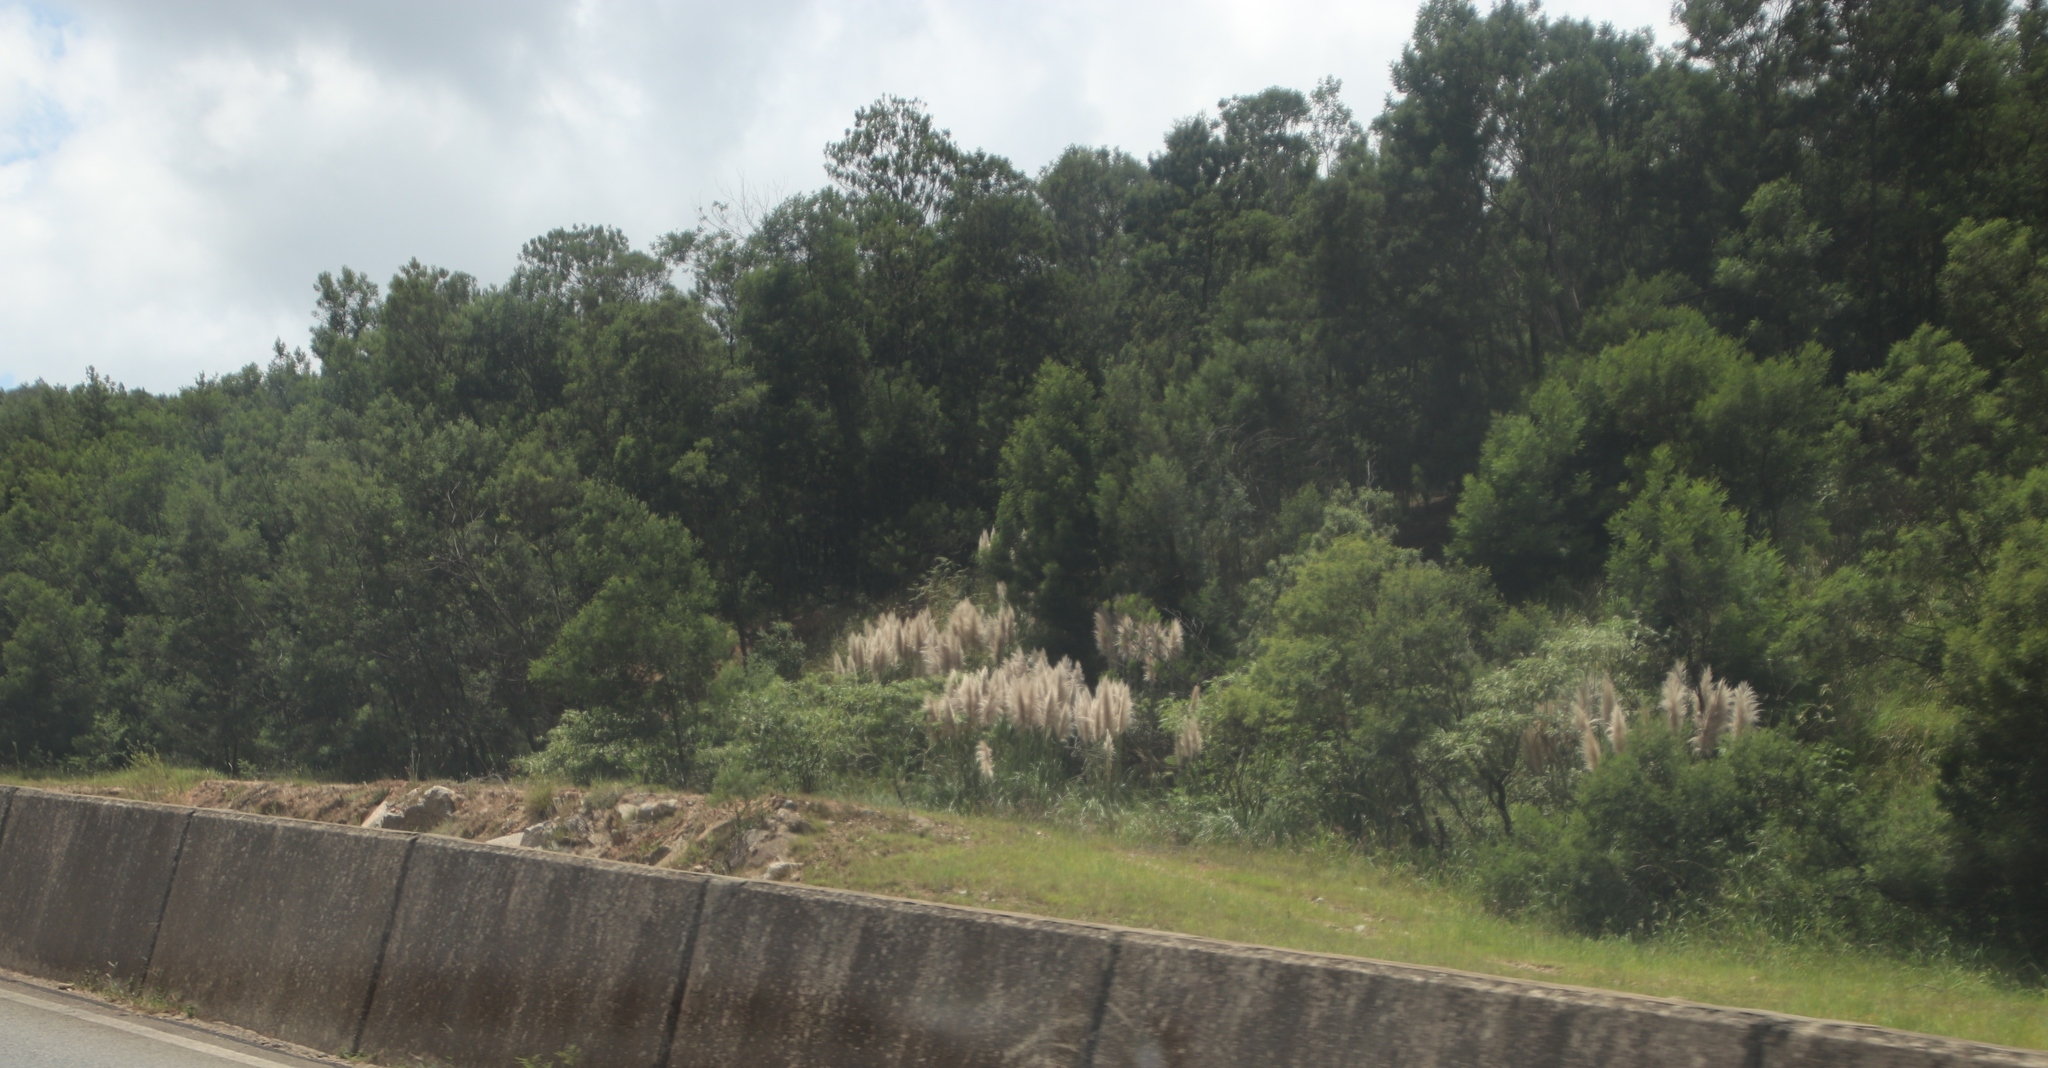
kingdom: Plantae
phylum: Tracheophyta
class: Liliopsida
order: Poales
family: Poaceae
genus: Cortaderia
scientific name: Cortaderia selloana
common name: Uruguayan pampas grass
